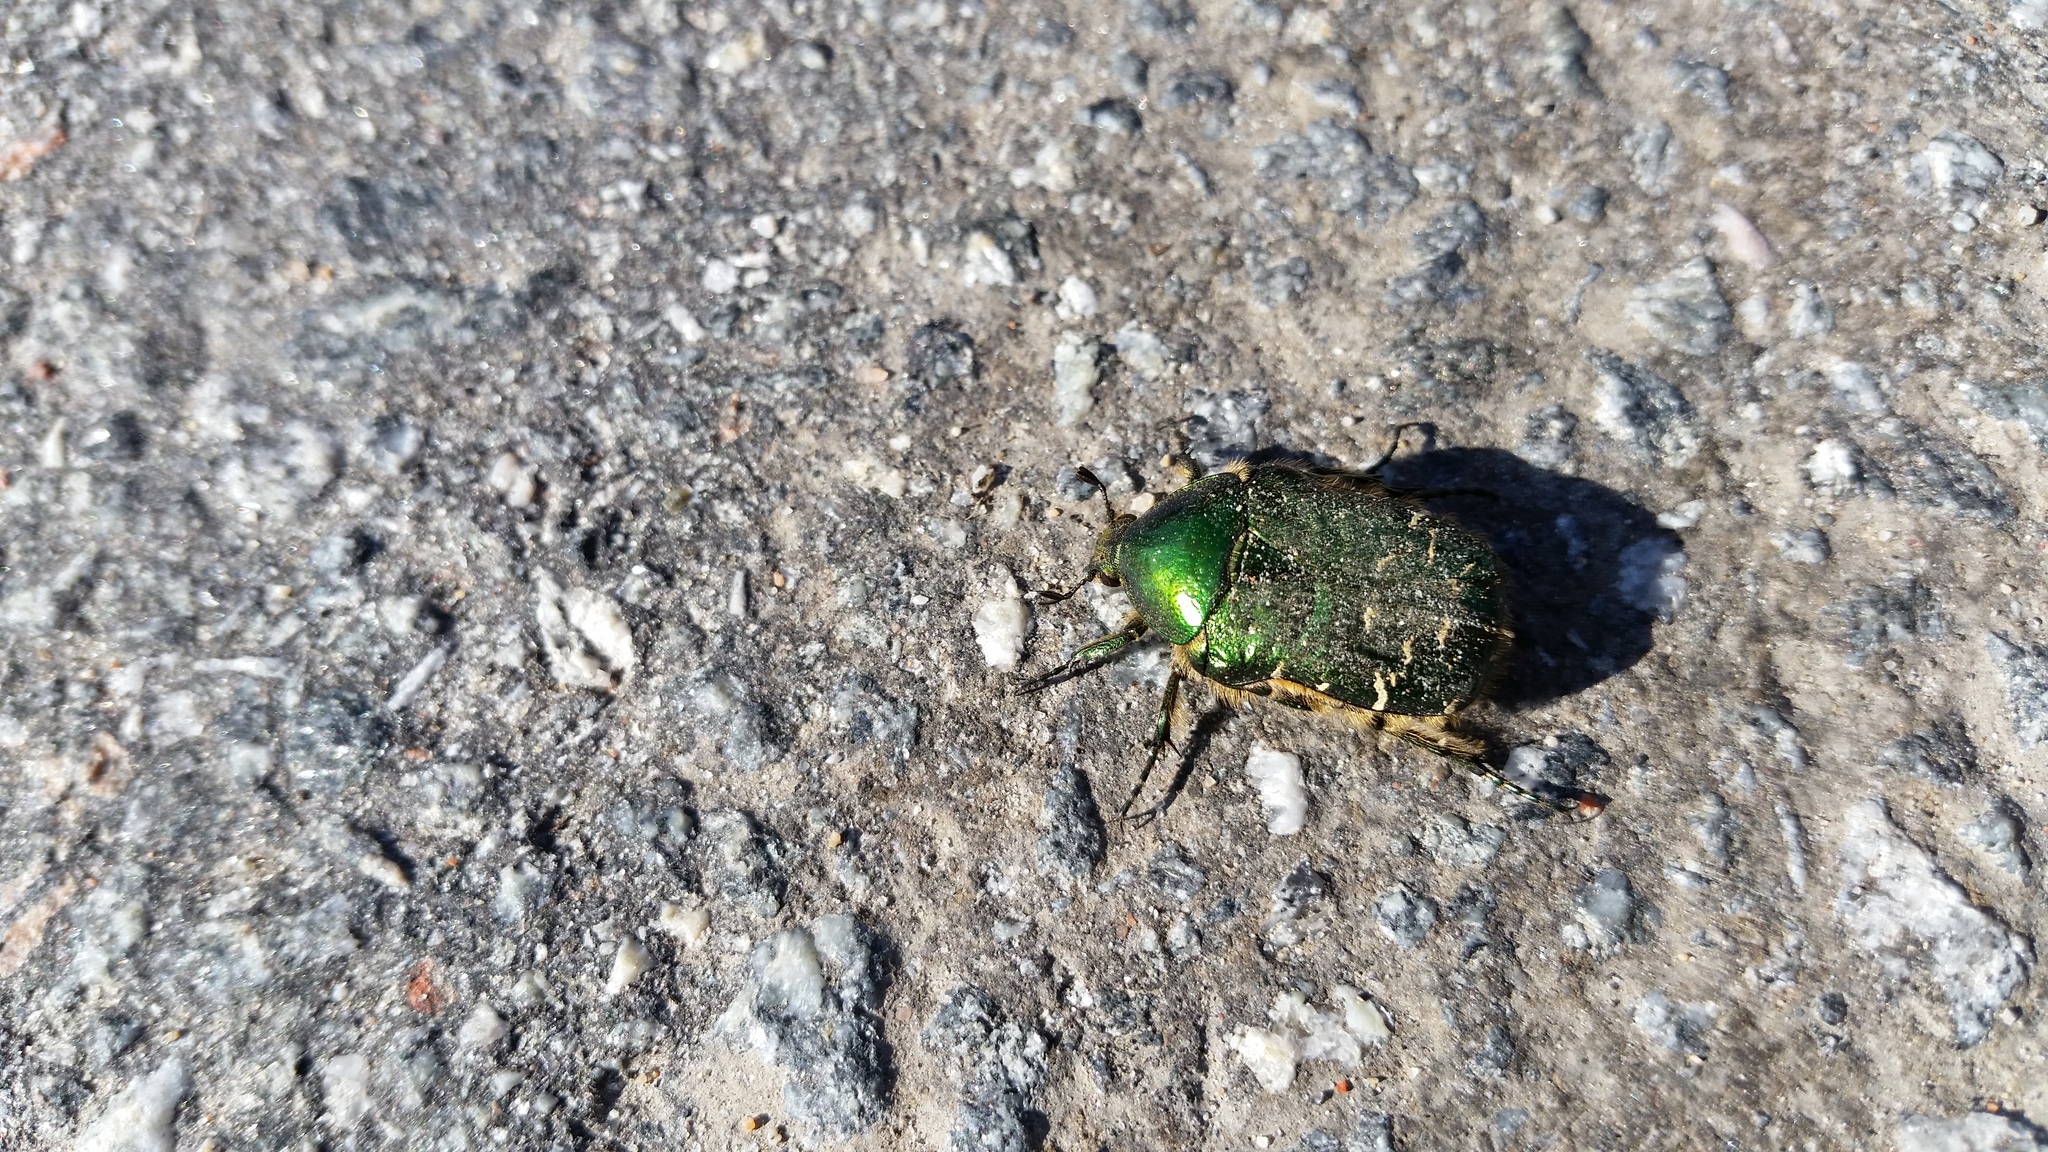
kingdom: Animalia
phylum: Arthropoda
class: Insecta
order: Coleoptera
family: Scarabaeidae
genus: Cetonia
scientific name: Cetonia aurata
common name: Rose chafer
